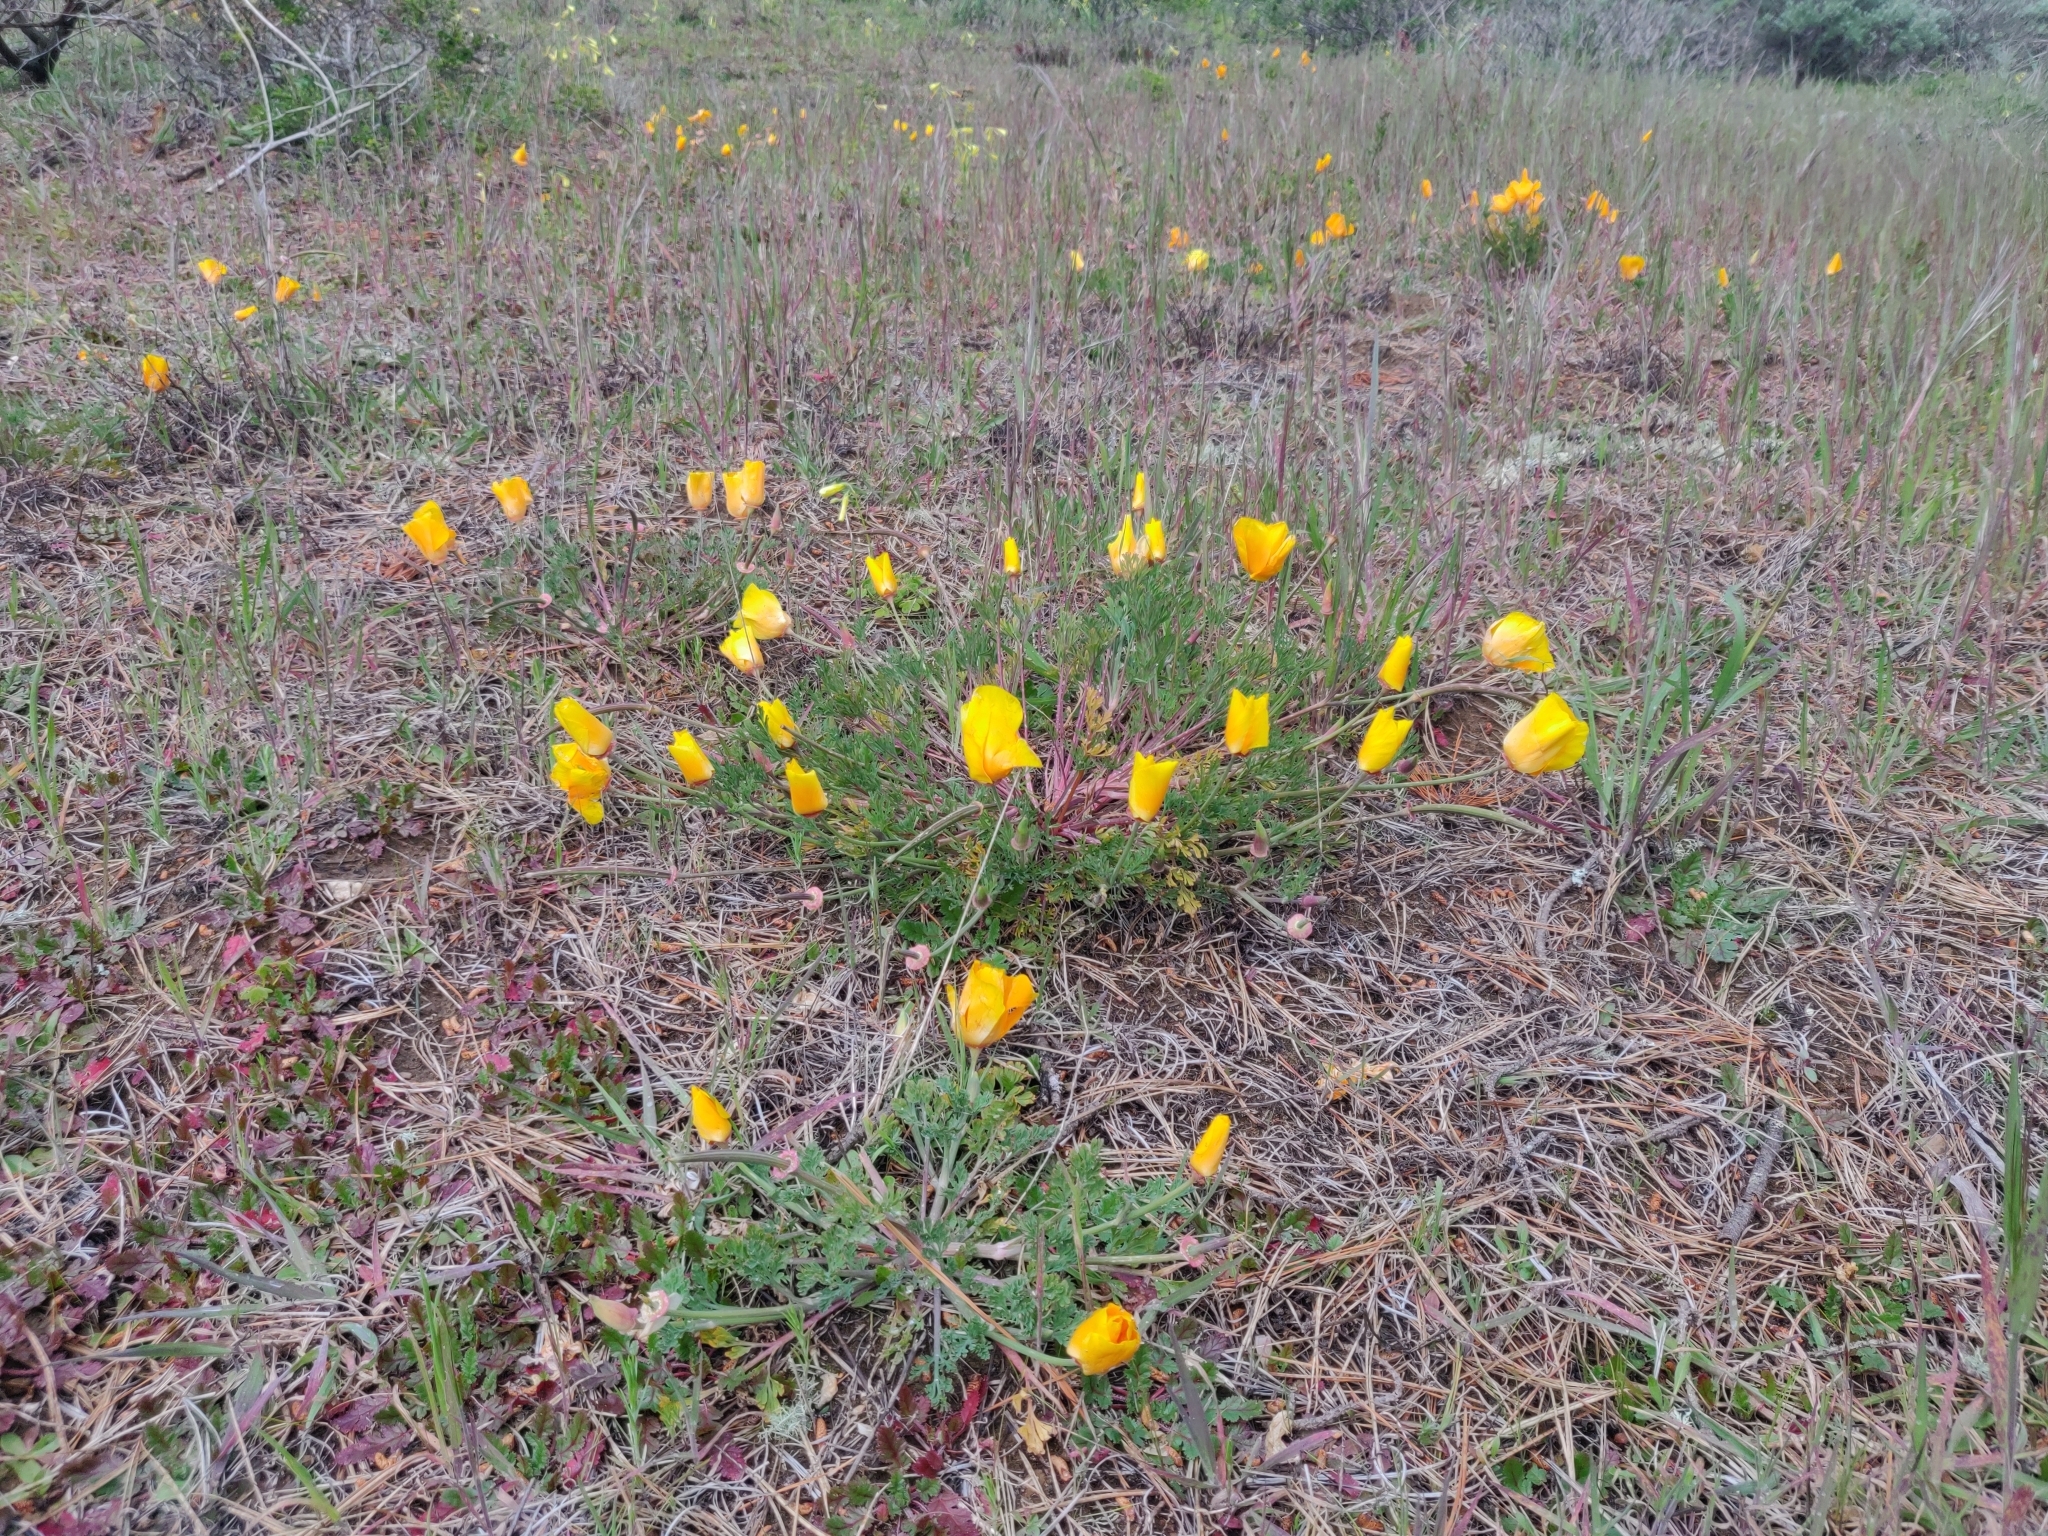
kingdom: Plantae
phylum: Tracheophyta
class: Magnoliopsida
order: Ranunculales
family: Papaveraceae
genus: Eschscholzia
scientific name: Eschscholzia californica
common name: California poppy
